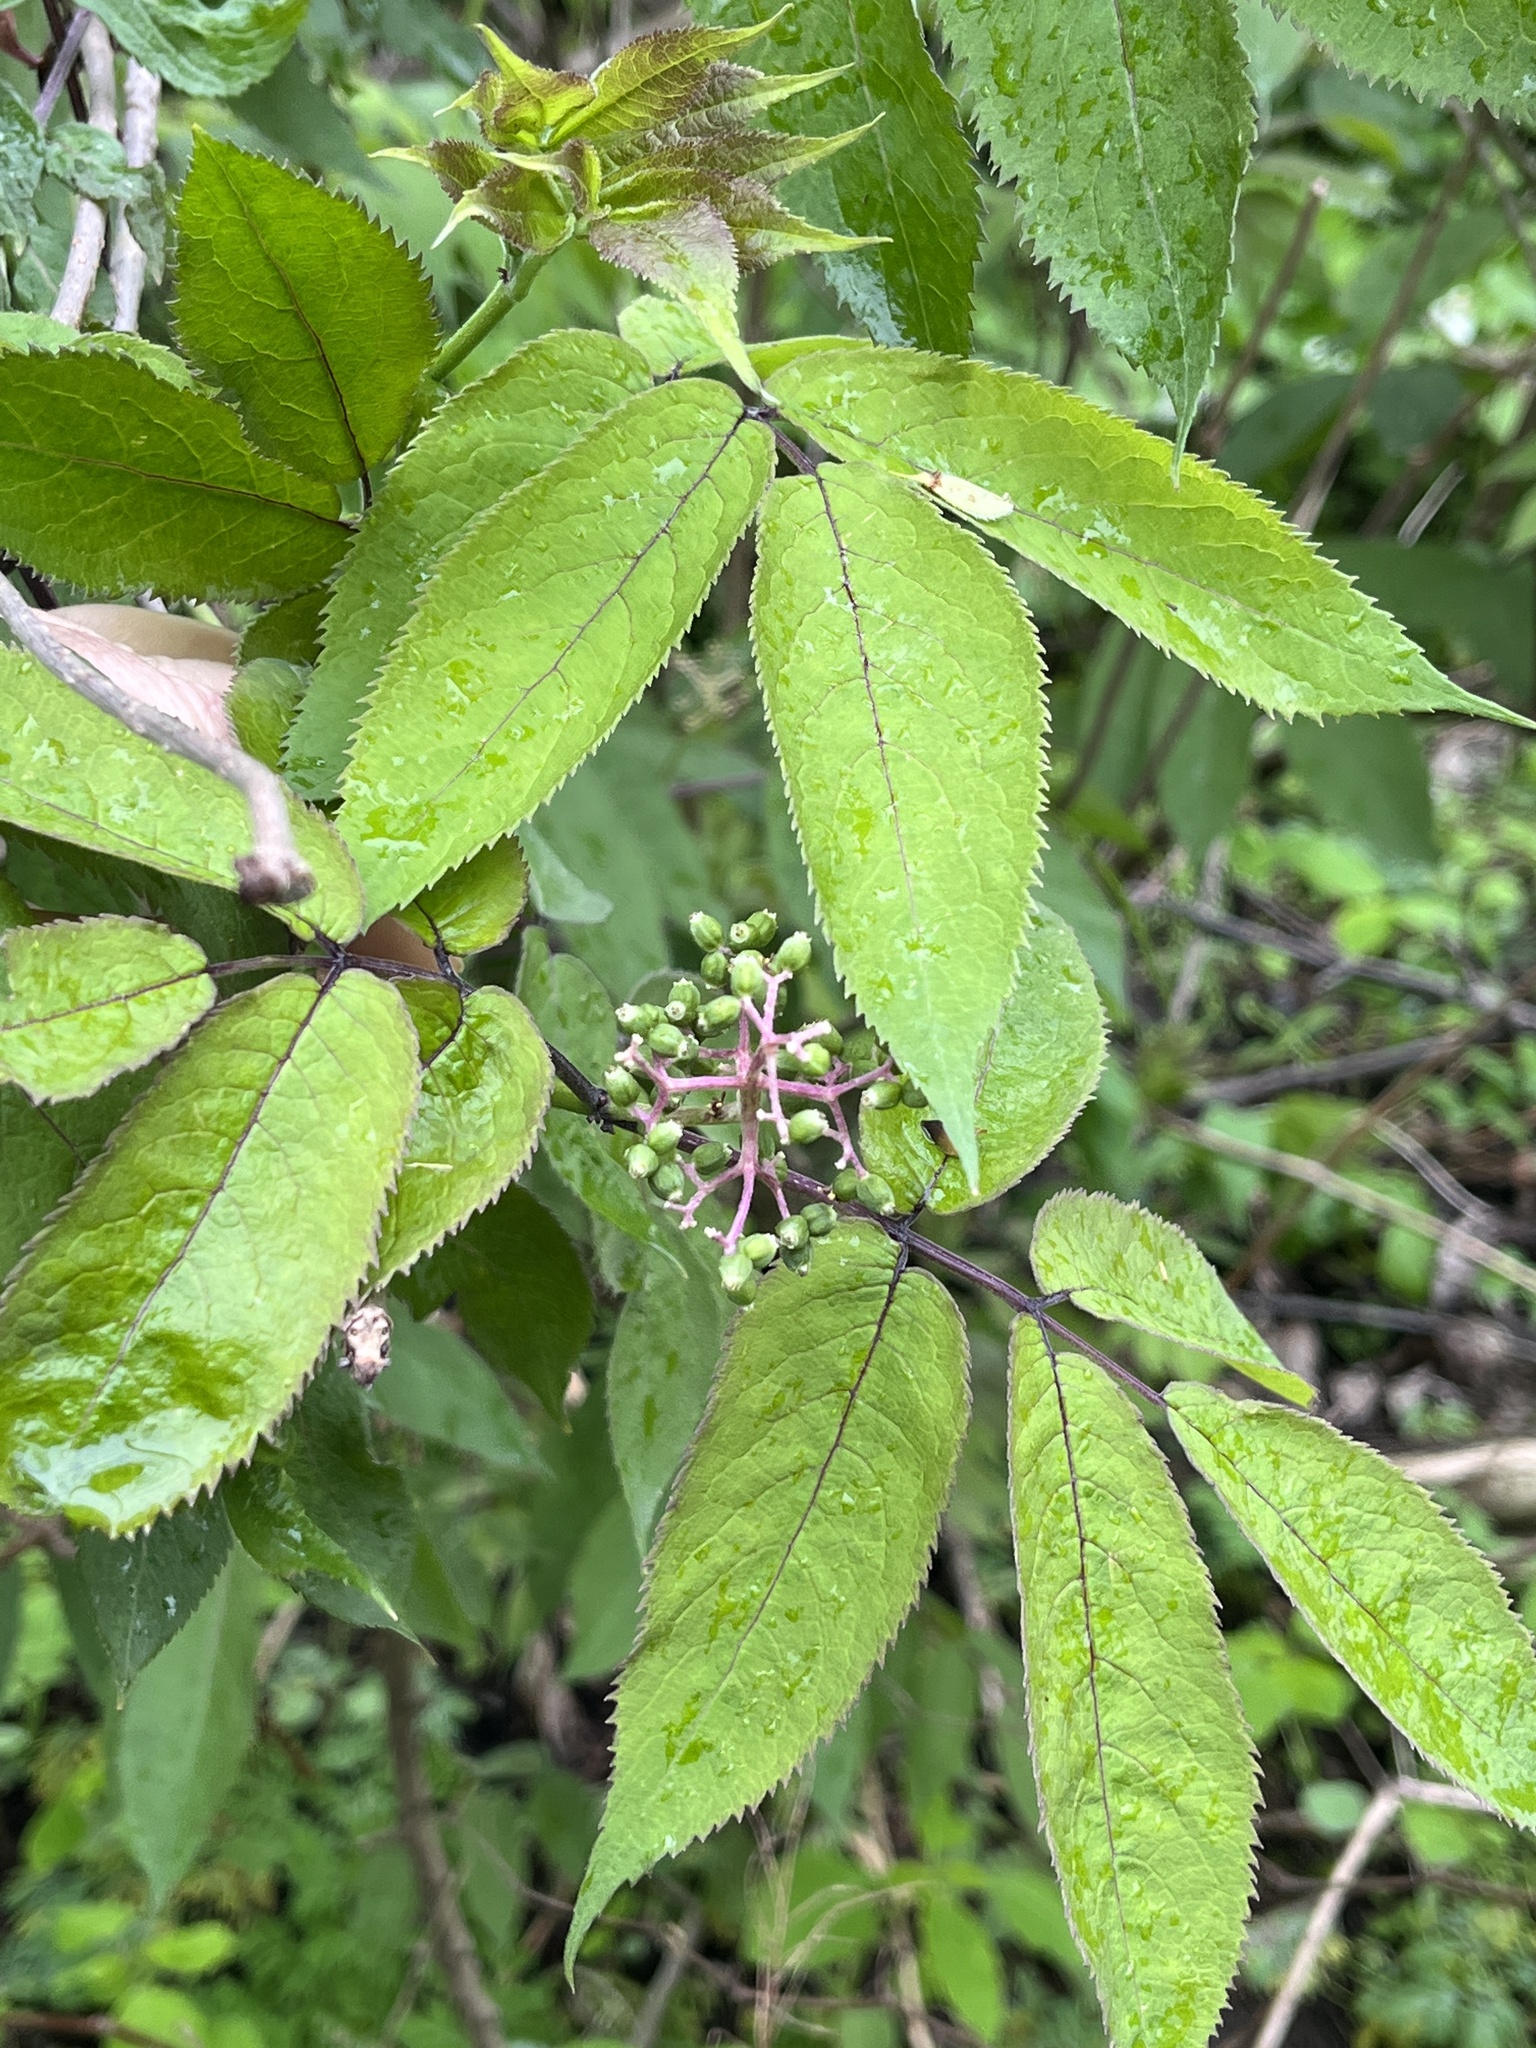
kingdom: Plantae
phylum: Tracheophyta
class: Magnoliopsida
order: Dipsacales
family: Viburnaceae
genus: Sambucus
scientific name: Sambucus racemosa
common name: Red-berried elder
